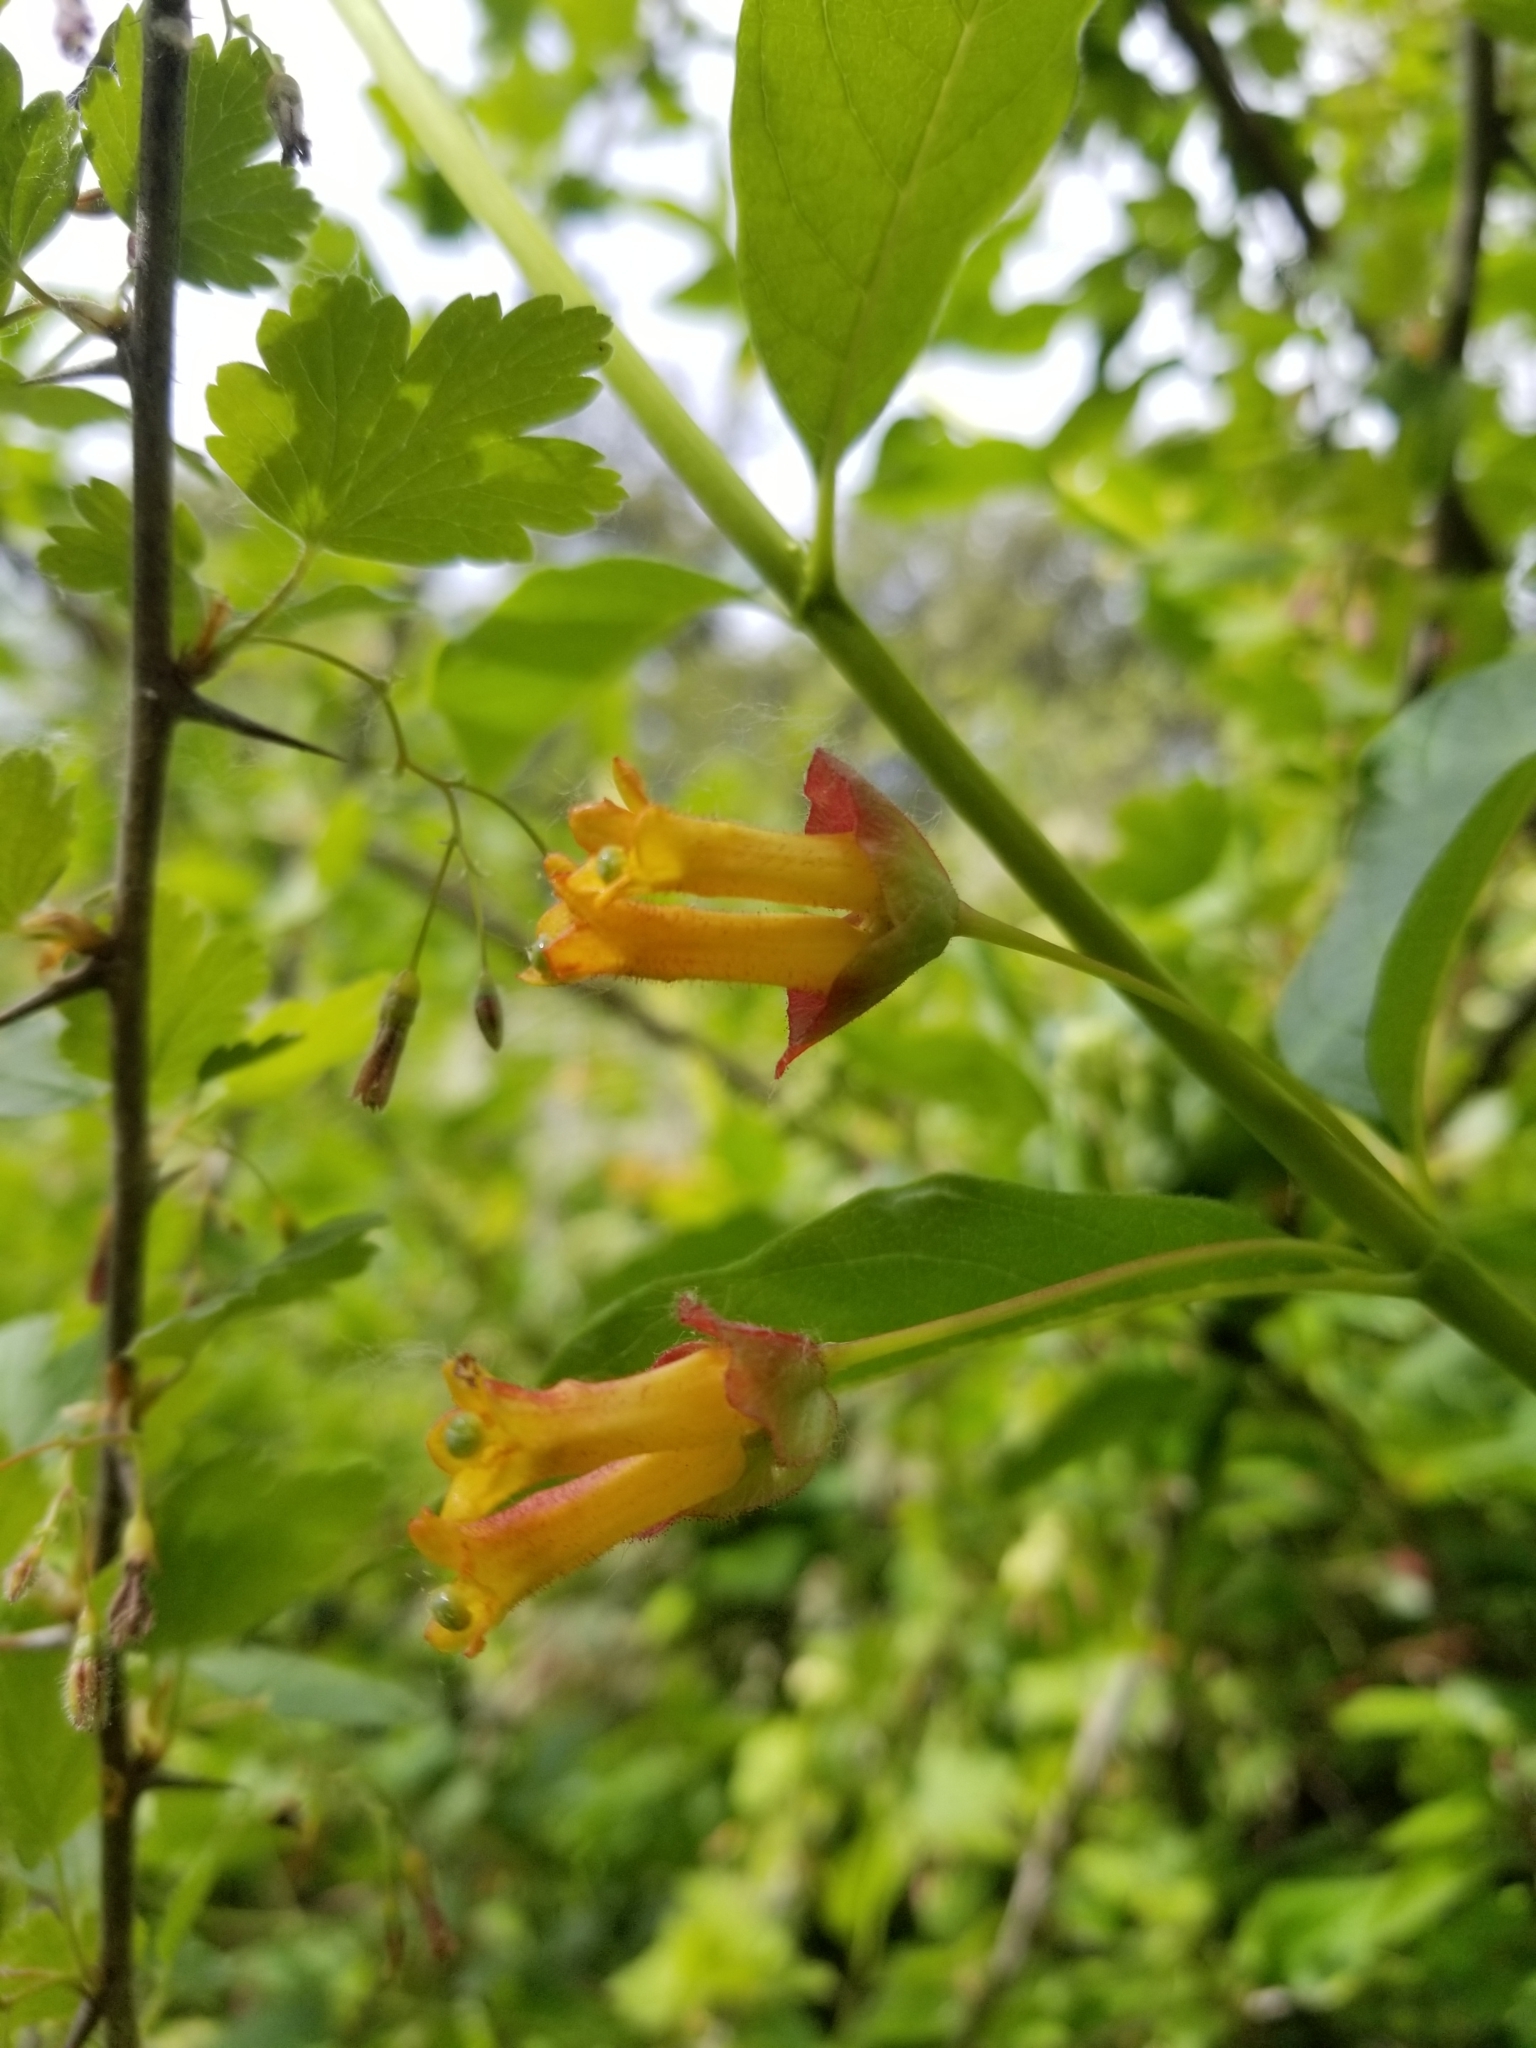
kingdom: Plantae
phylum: Tracheophyta
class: Magnoliopsida
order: Dipsacales
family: Caprifoliaceae
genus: Lonicera
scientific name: Lonicera involucrata
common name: Californian honeysuckle
